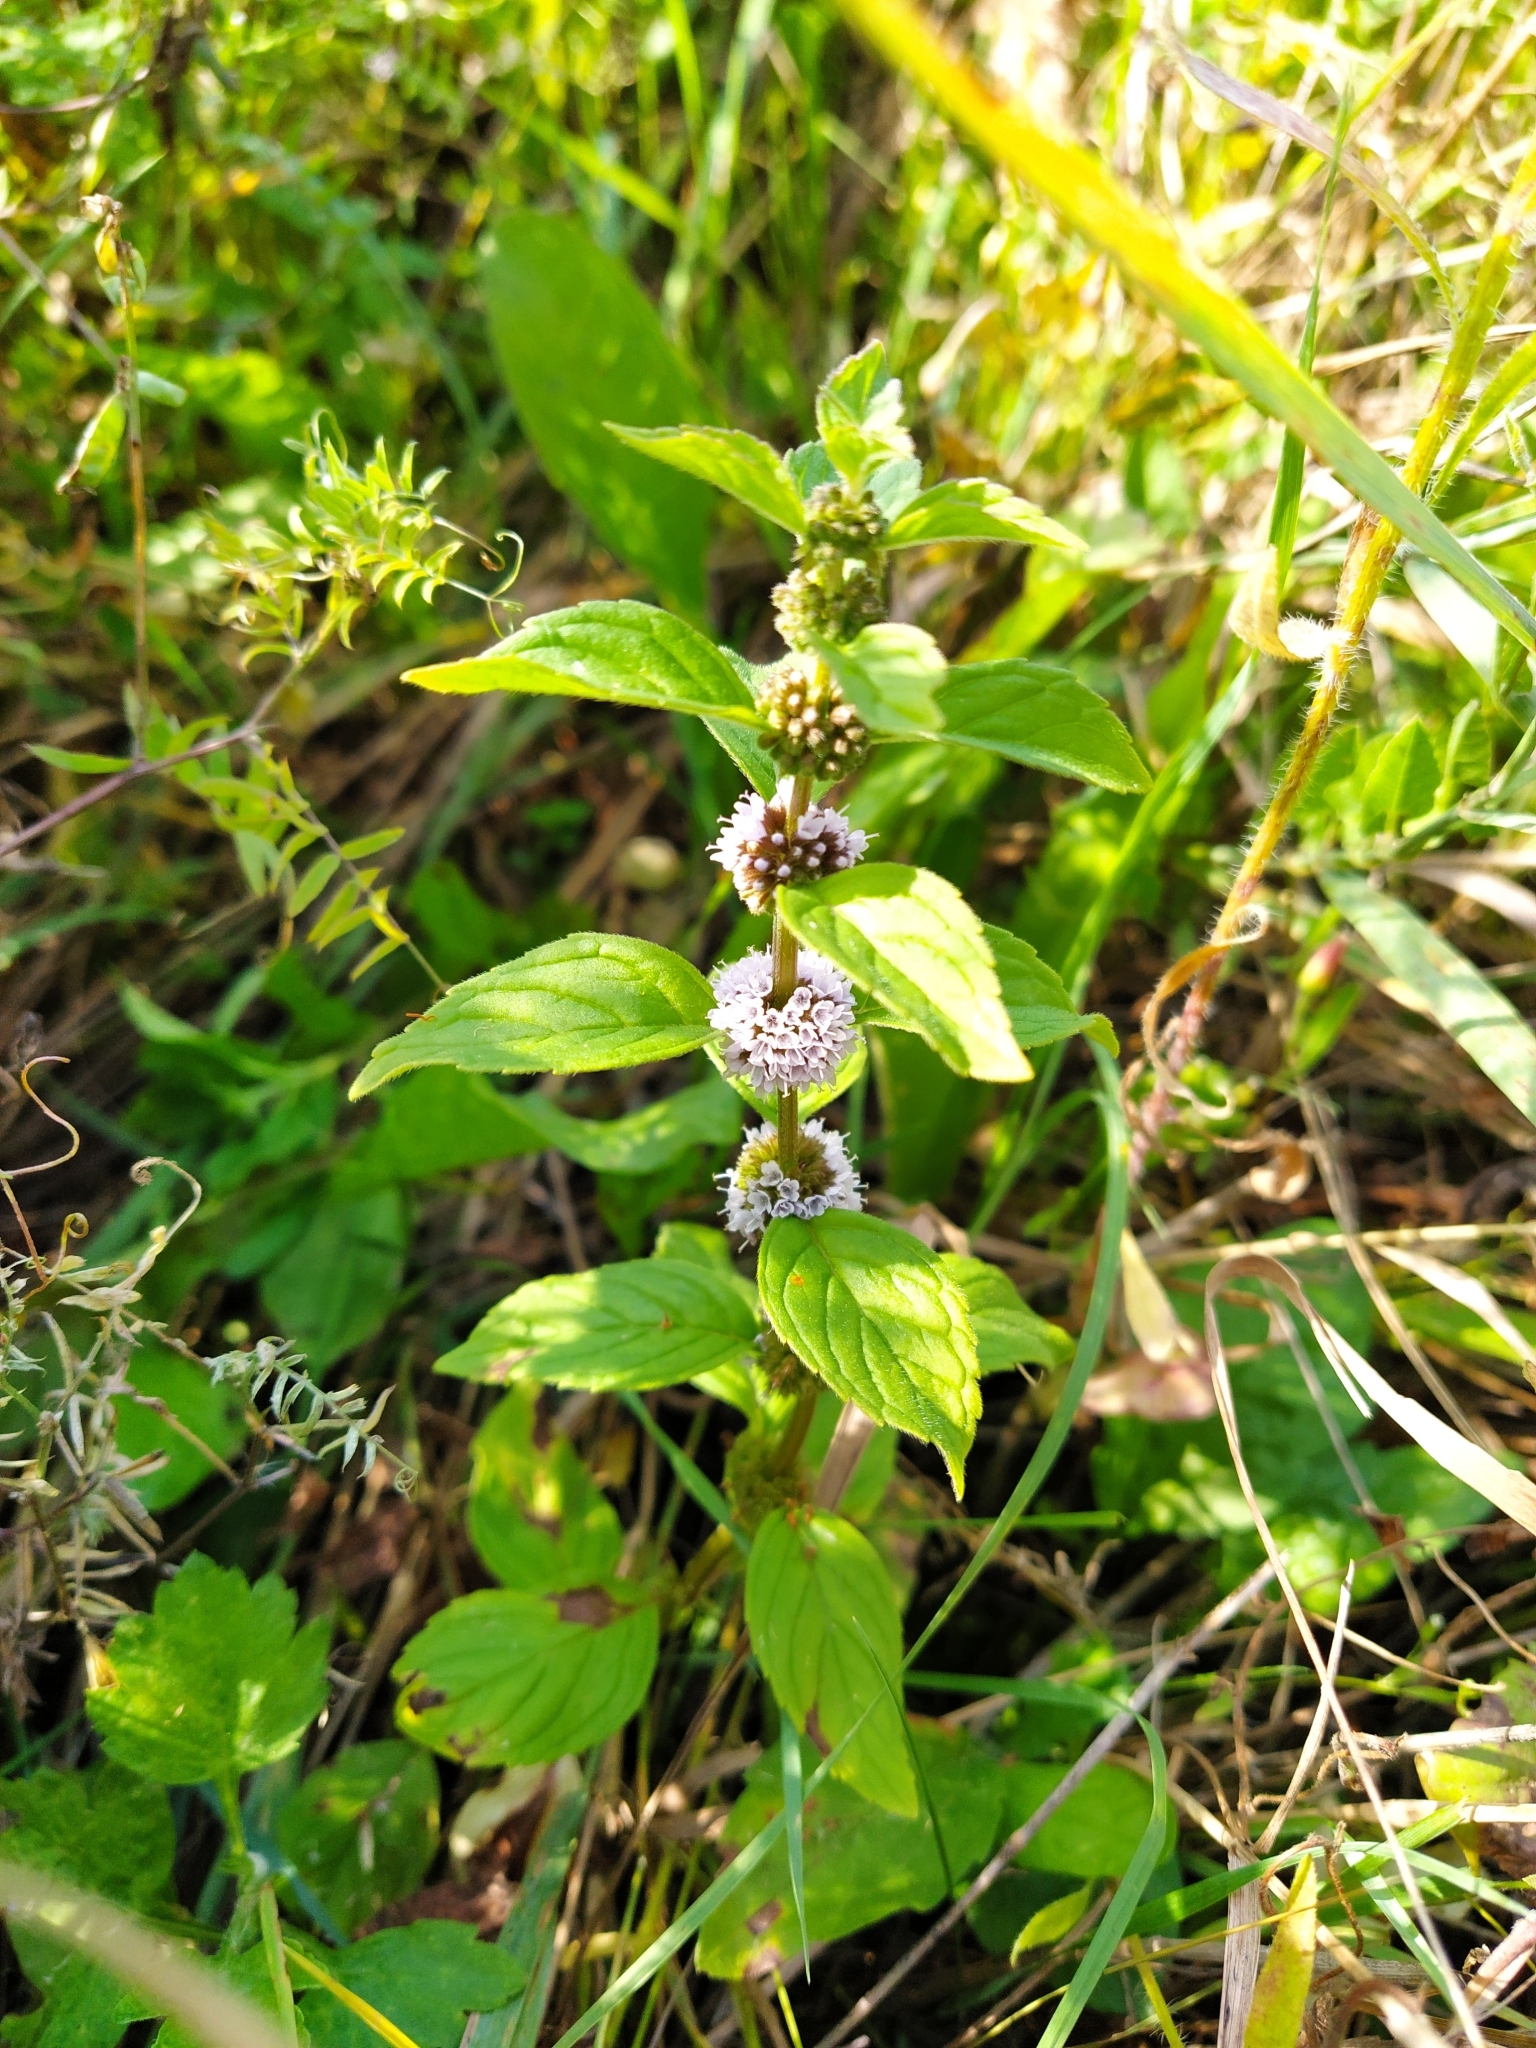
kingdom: Plantae
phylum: Tracheophyta
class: Magnoliopsida
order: Lamiales
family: Lamiaceae
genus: Mentha
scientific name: Mentha arvensis
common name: Corn mint
